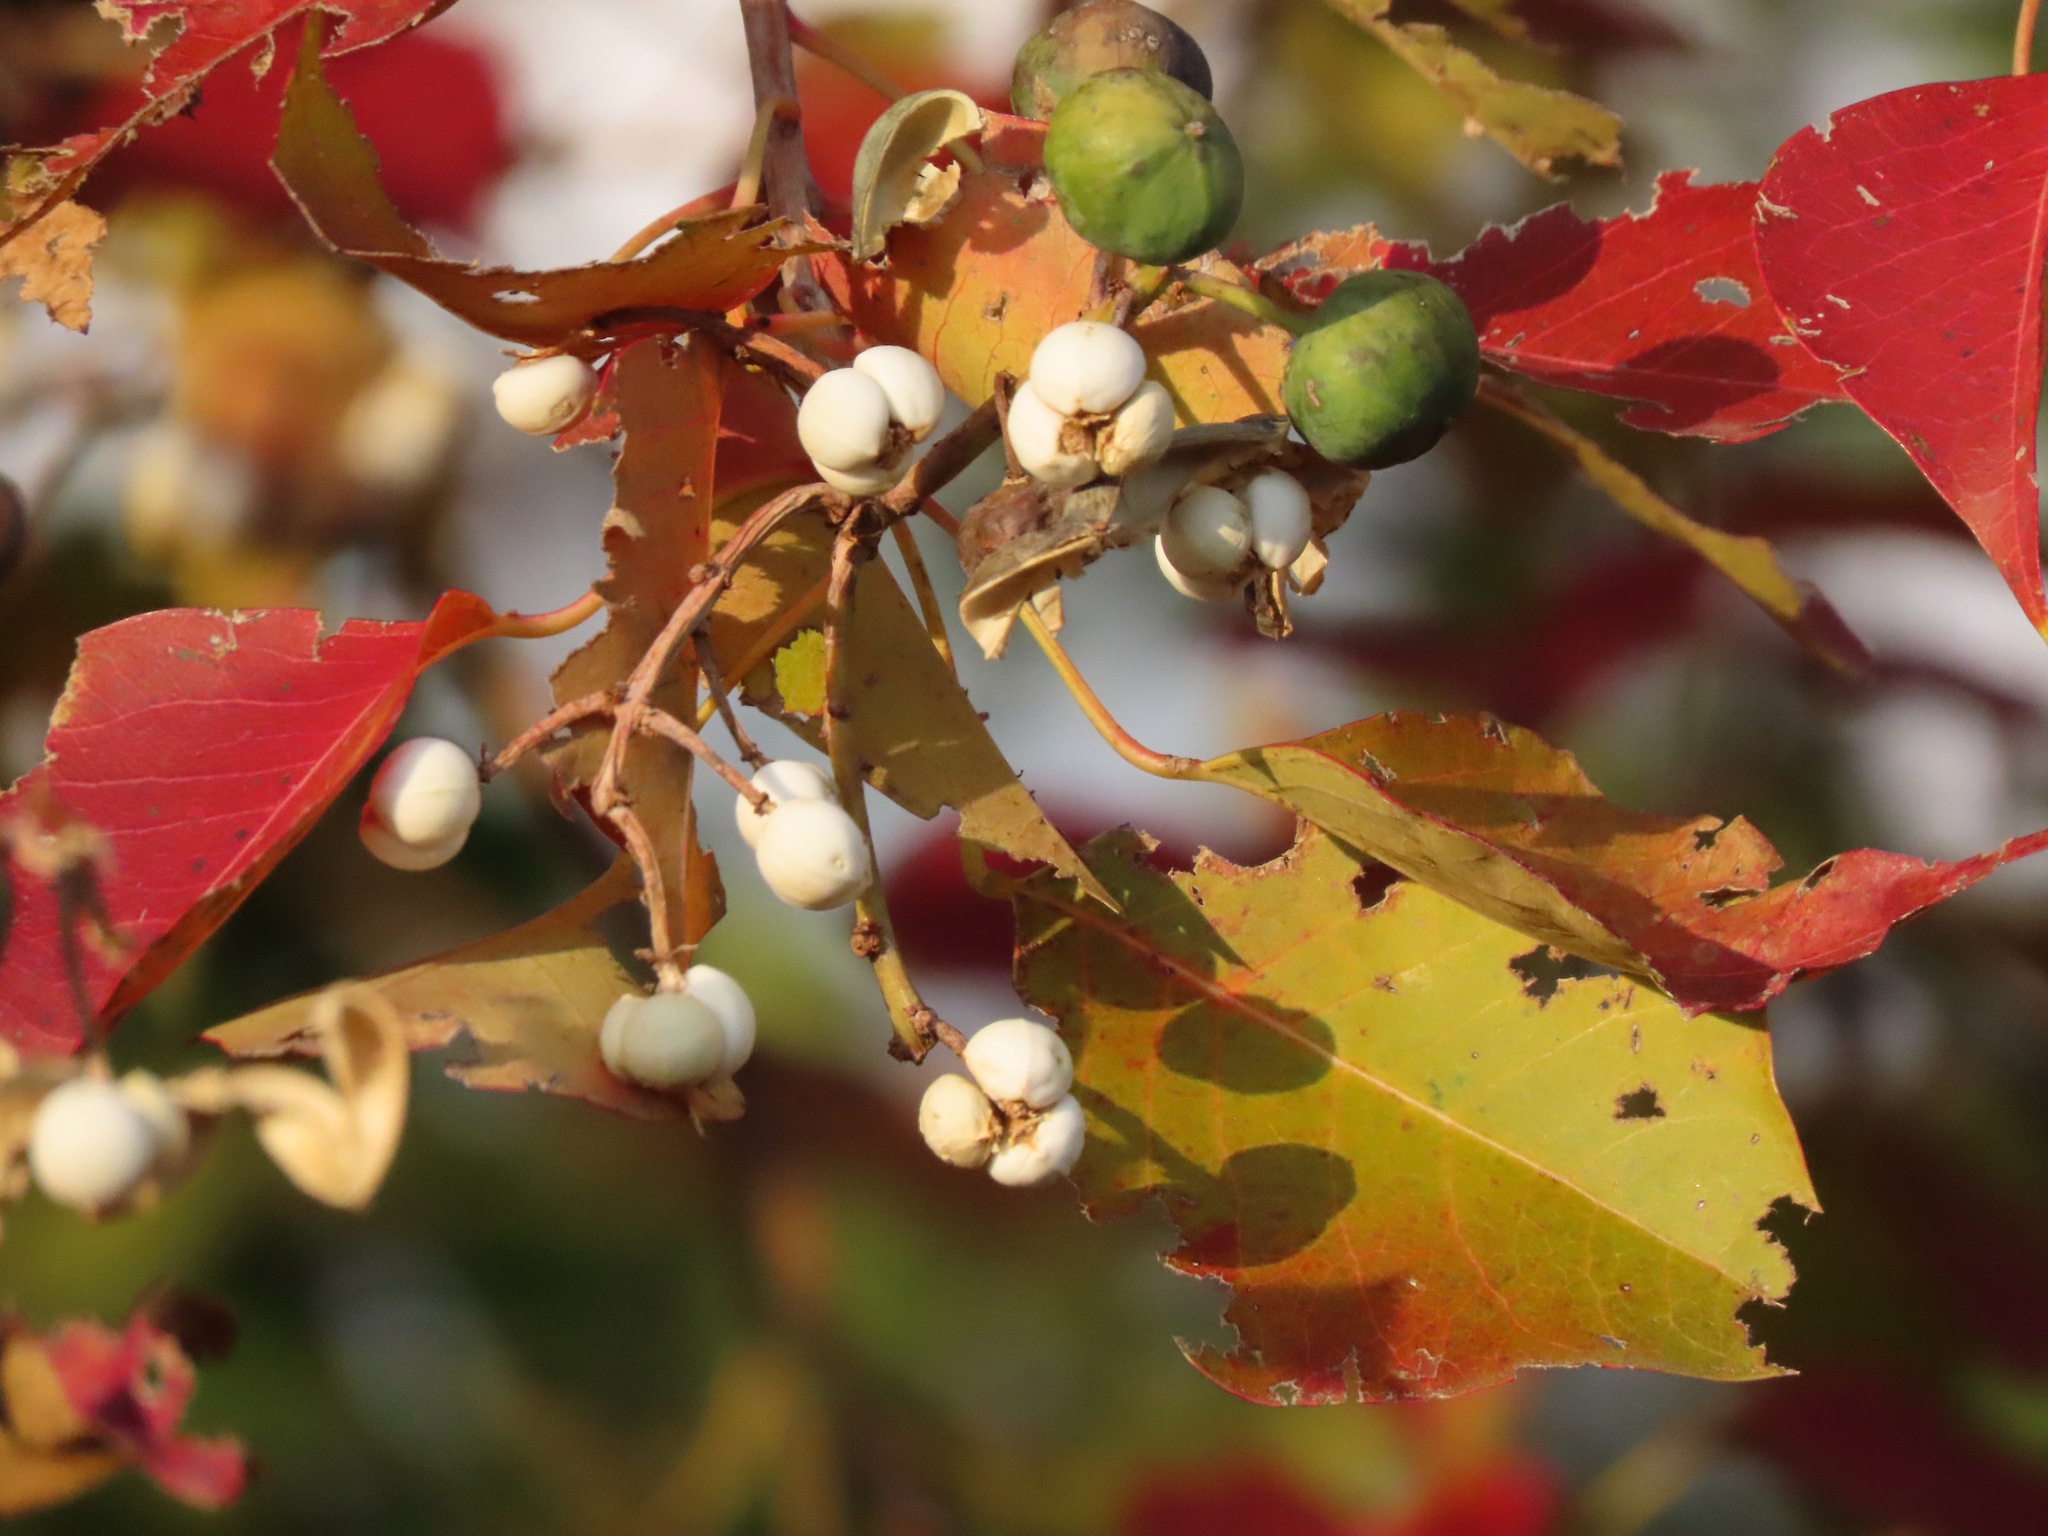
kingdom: Plantae
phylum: Tracheophyta
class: Magnoliopsida
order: Malpighiales
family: Euphorbiaceae
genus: Triadica
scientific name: Triadica sebifera
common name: Chinese tallow
